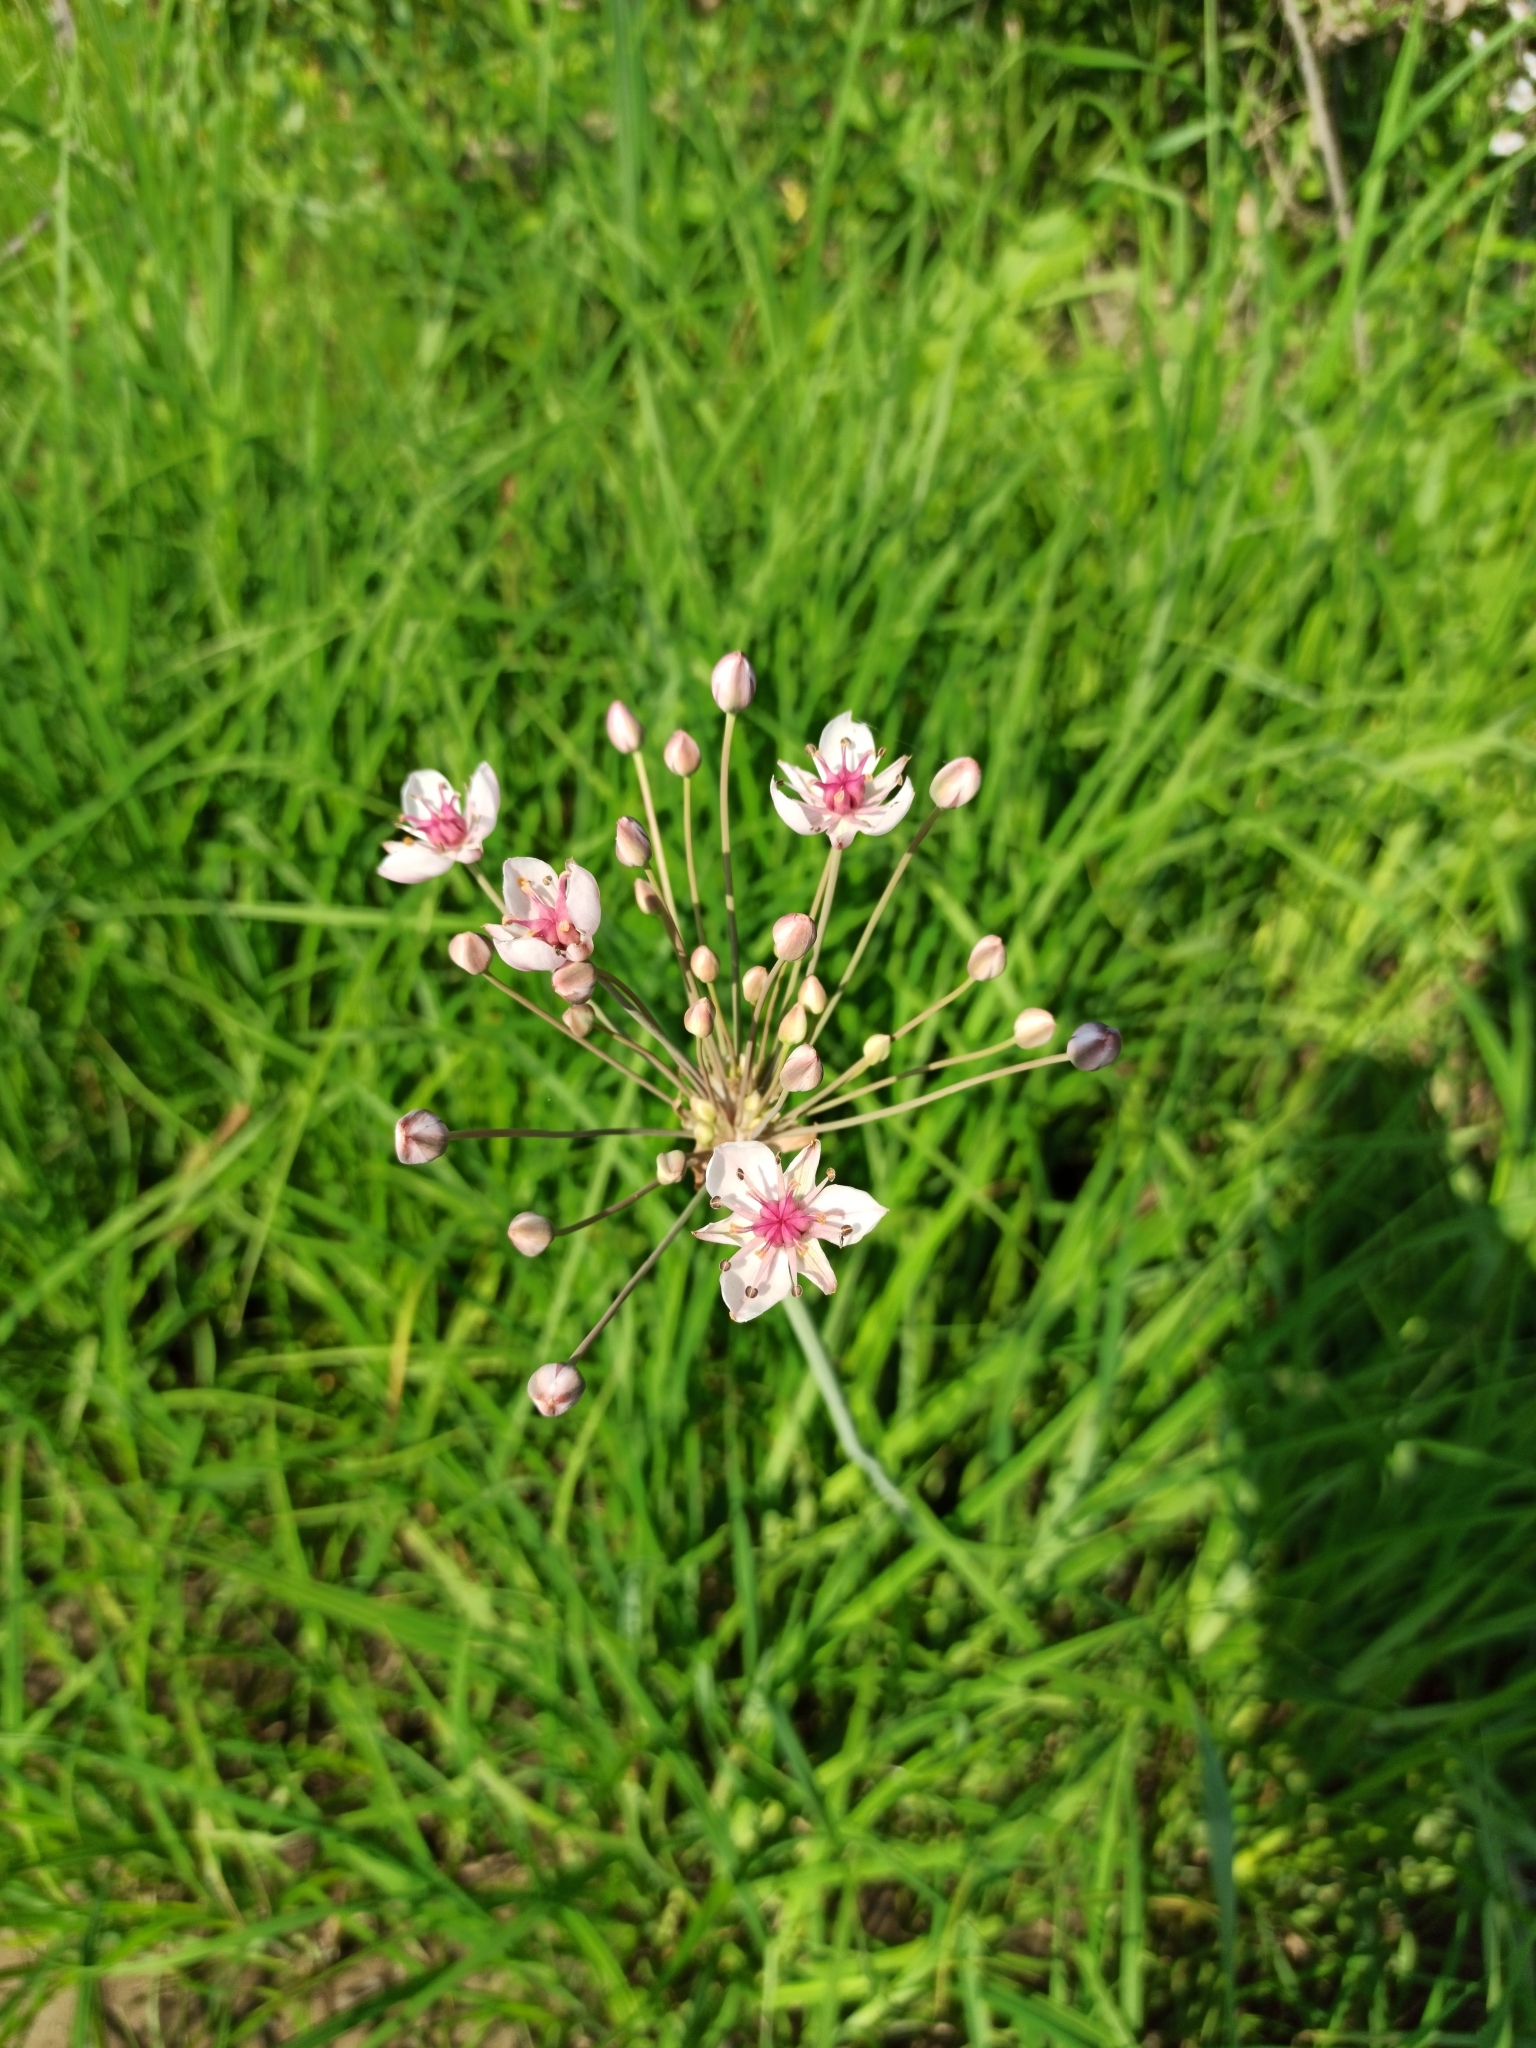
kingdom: Plantae
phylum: Tracheophyta
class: Liliopsida
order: Alismatales
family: Butomaceae
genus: Butomus
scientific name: Butomus umbellatus
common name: Flowering-rush
